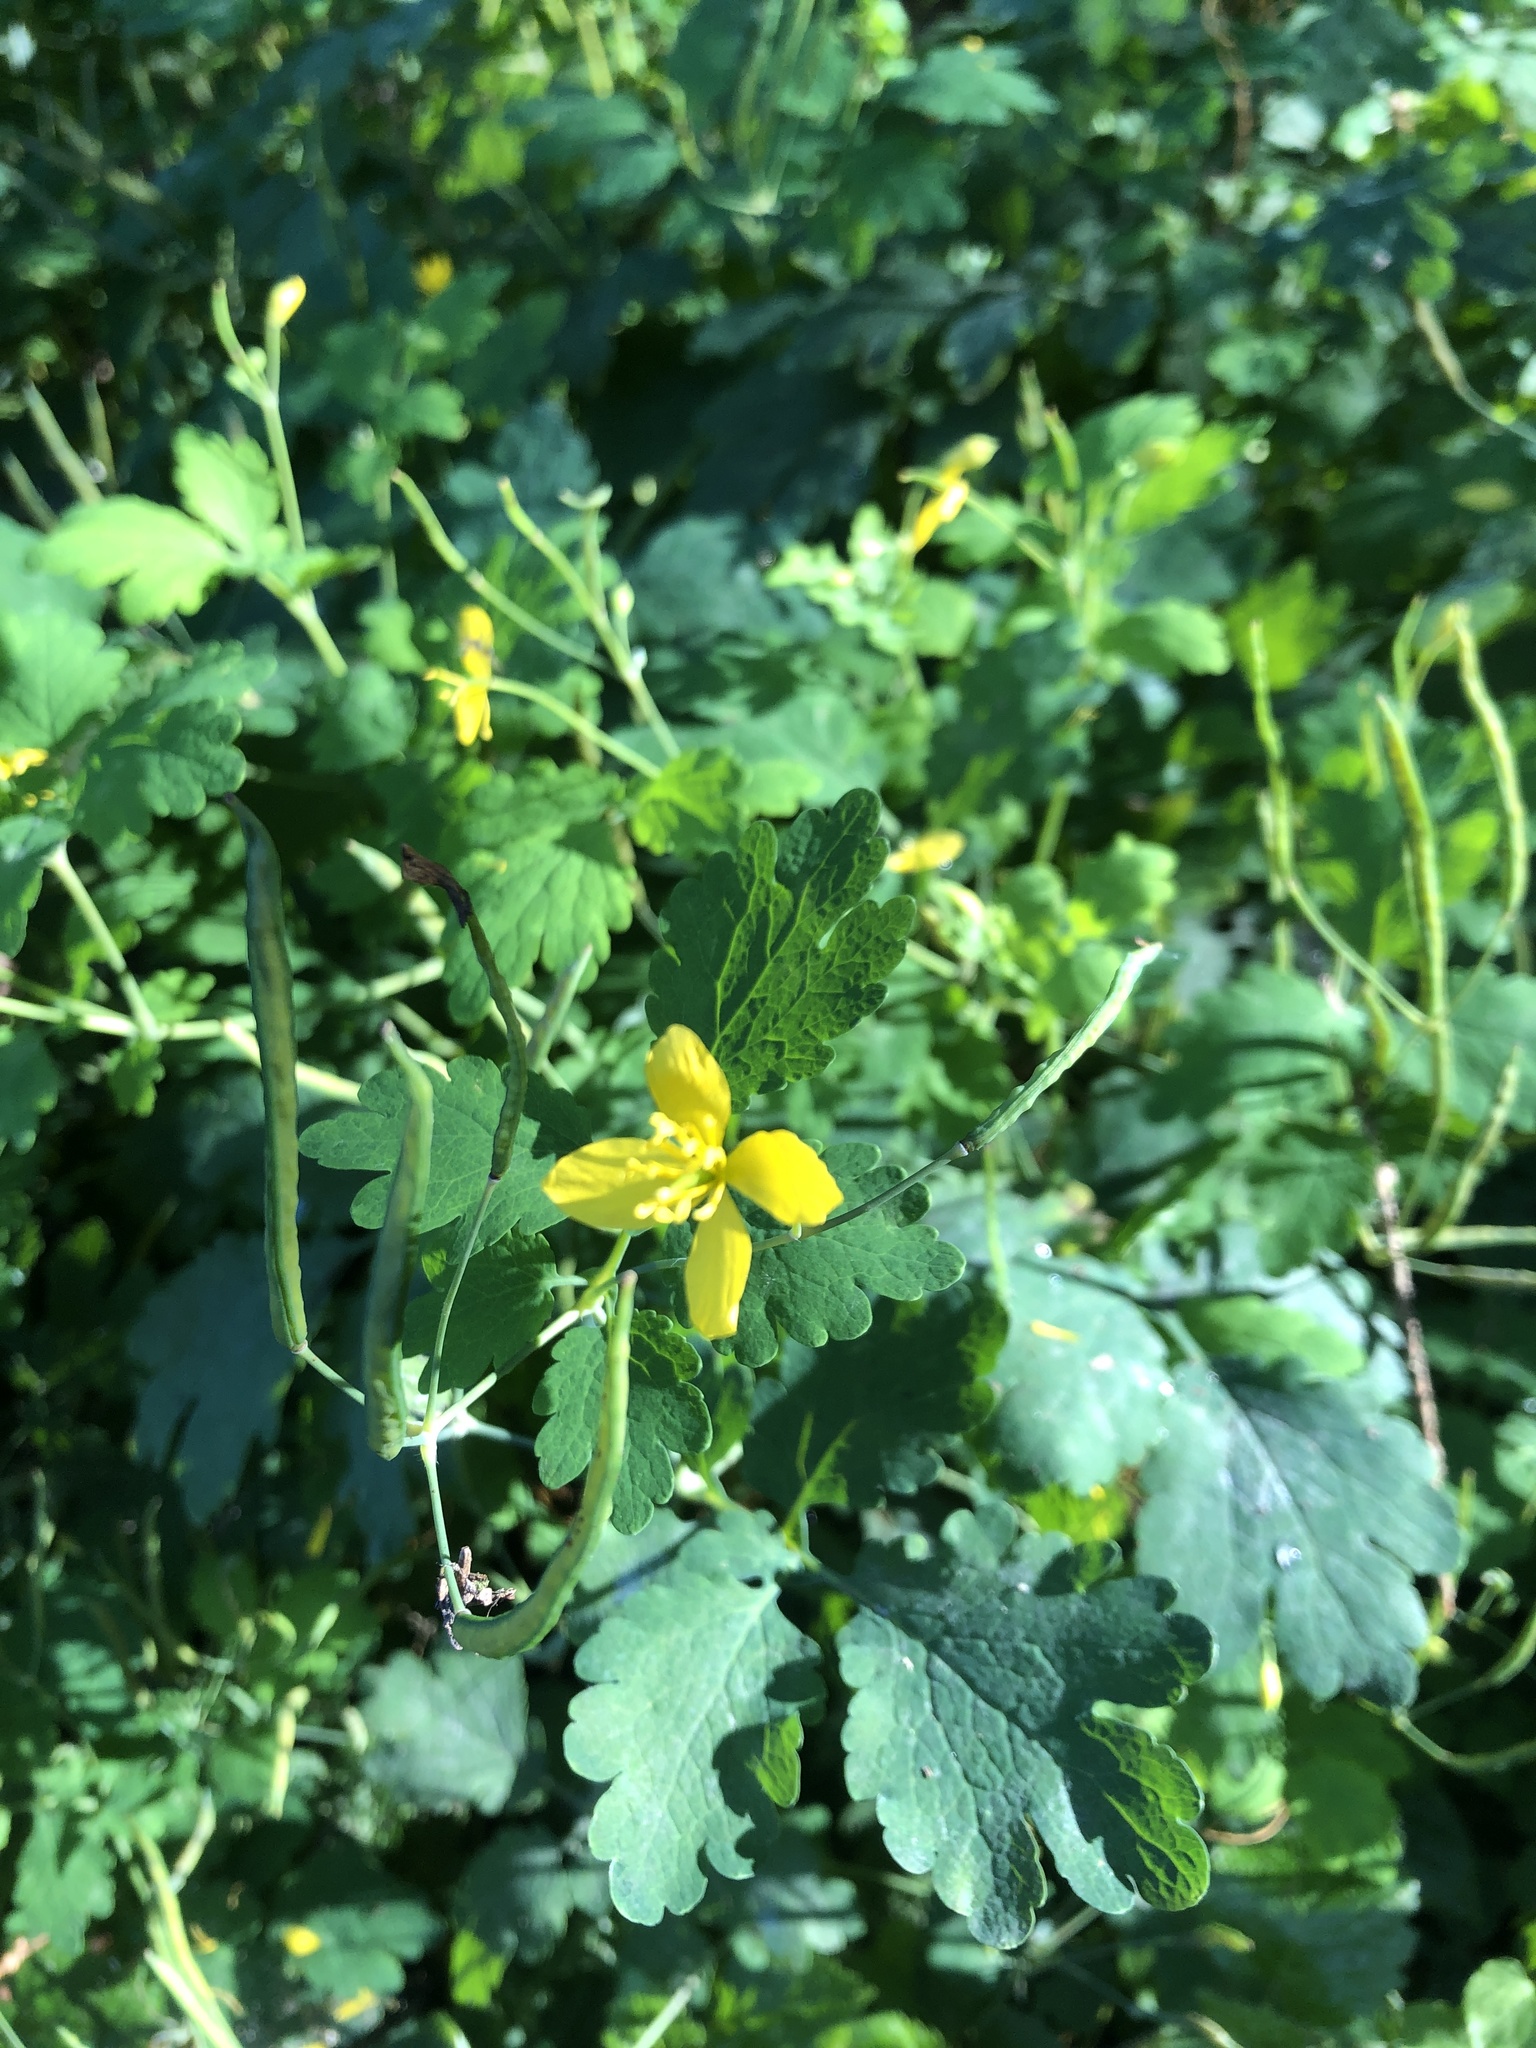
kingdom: Plantae
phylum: Tracheophyta
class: Magnoliopsida
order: Ranunculales
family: Papaveraceae
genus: Chelidonium
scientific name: Chelidonium majus
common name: Greater celandine
